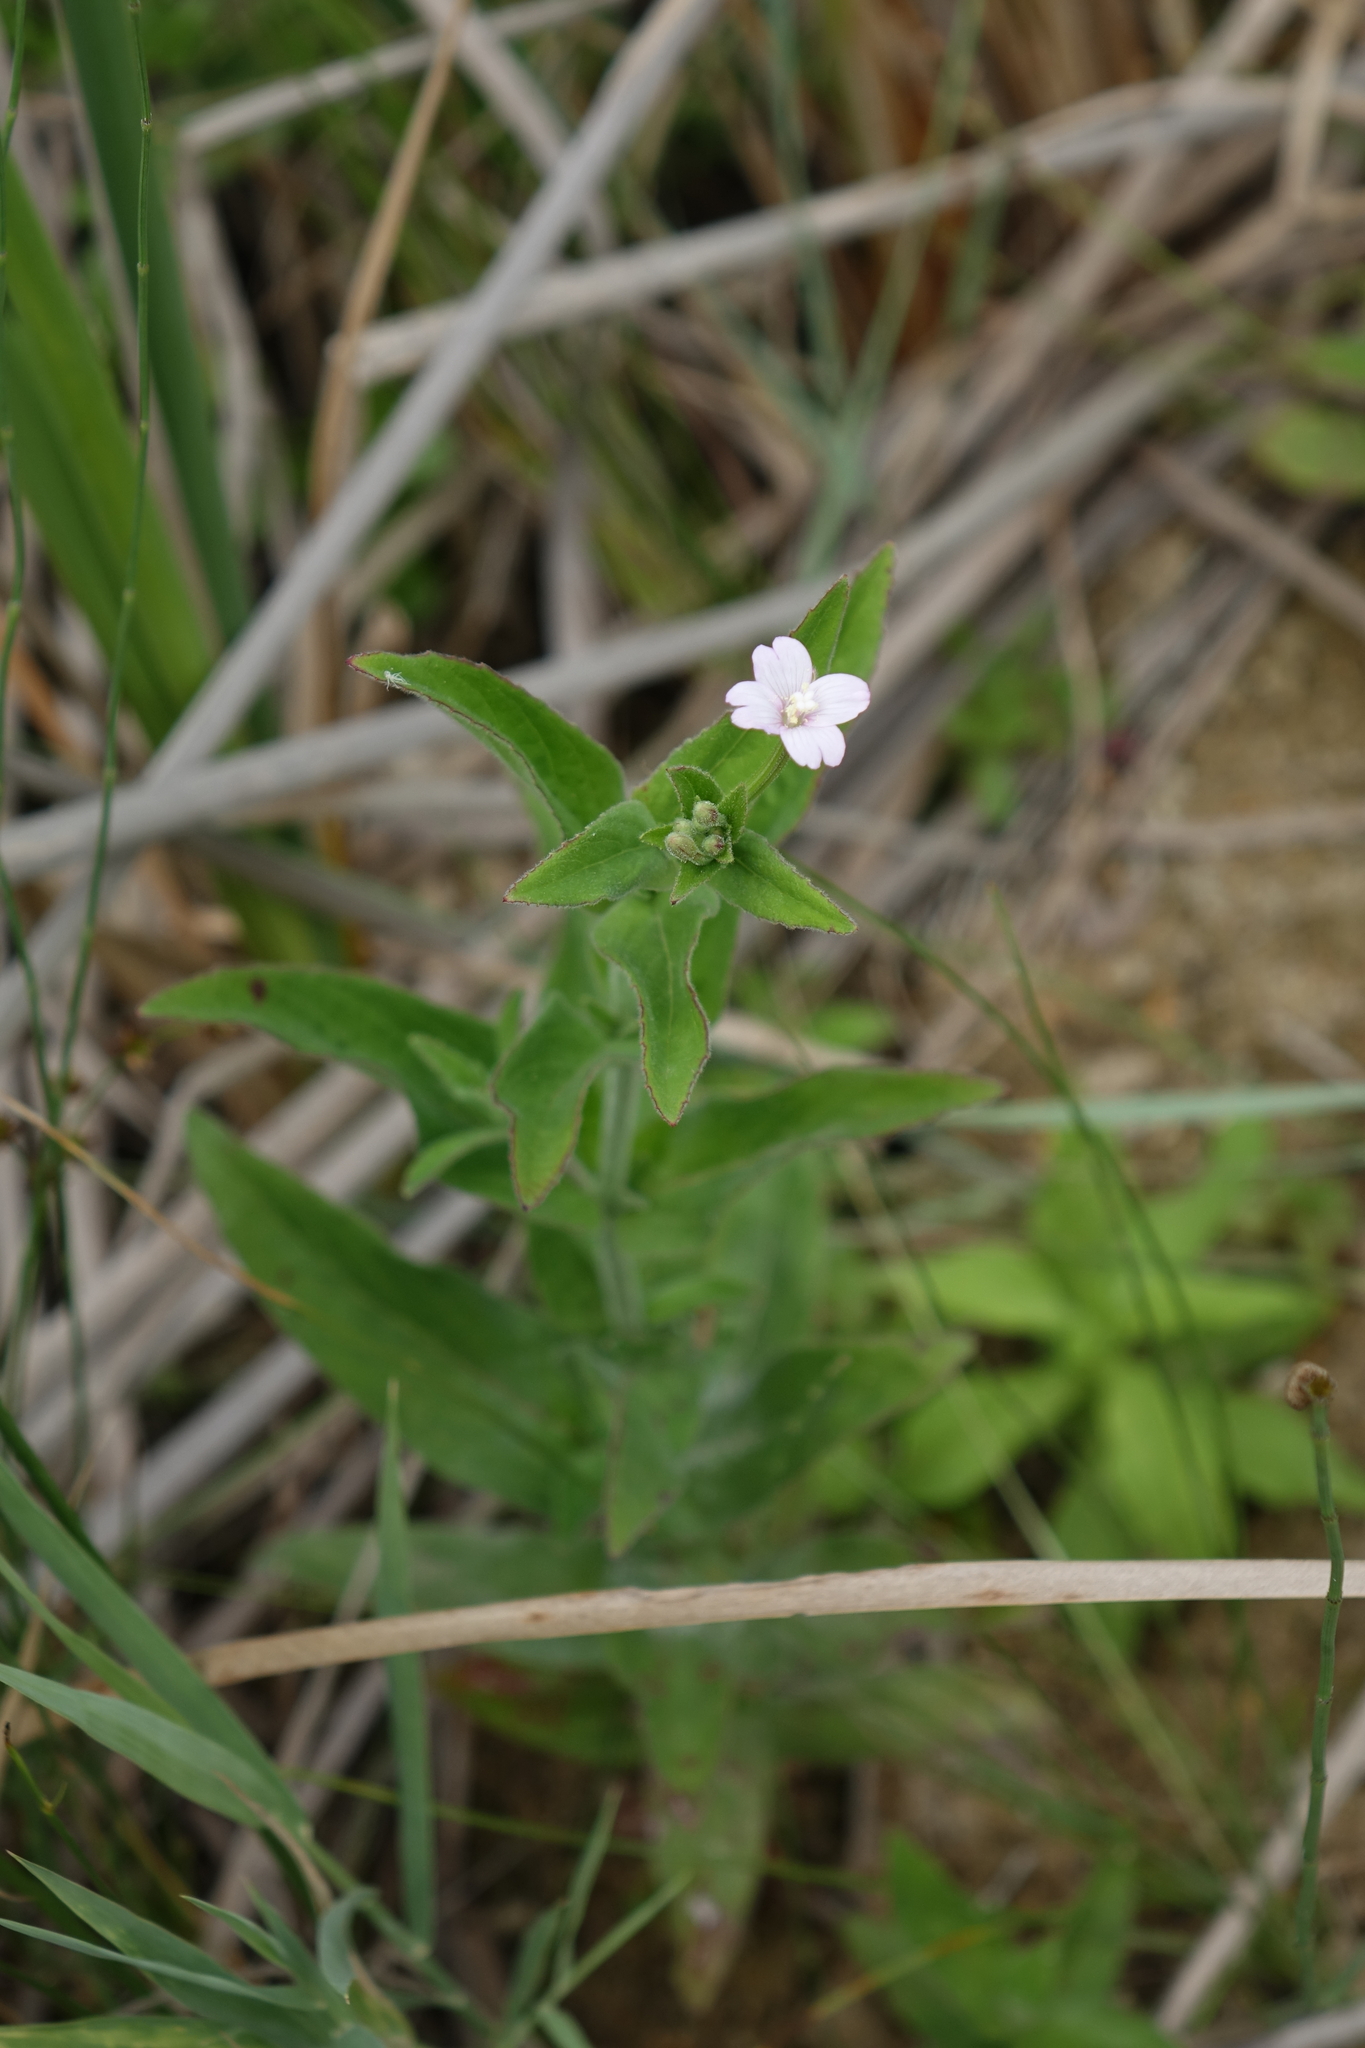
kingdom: Plantae
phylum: Tracheophyta
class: Magnoliopsida
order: Myrtales
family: Onagraceae
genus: Epilobium
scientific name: Epilobium parviflorum
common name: Hoary willowherb
